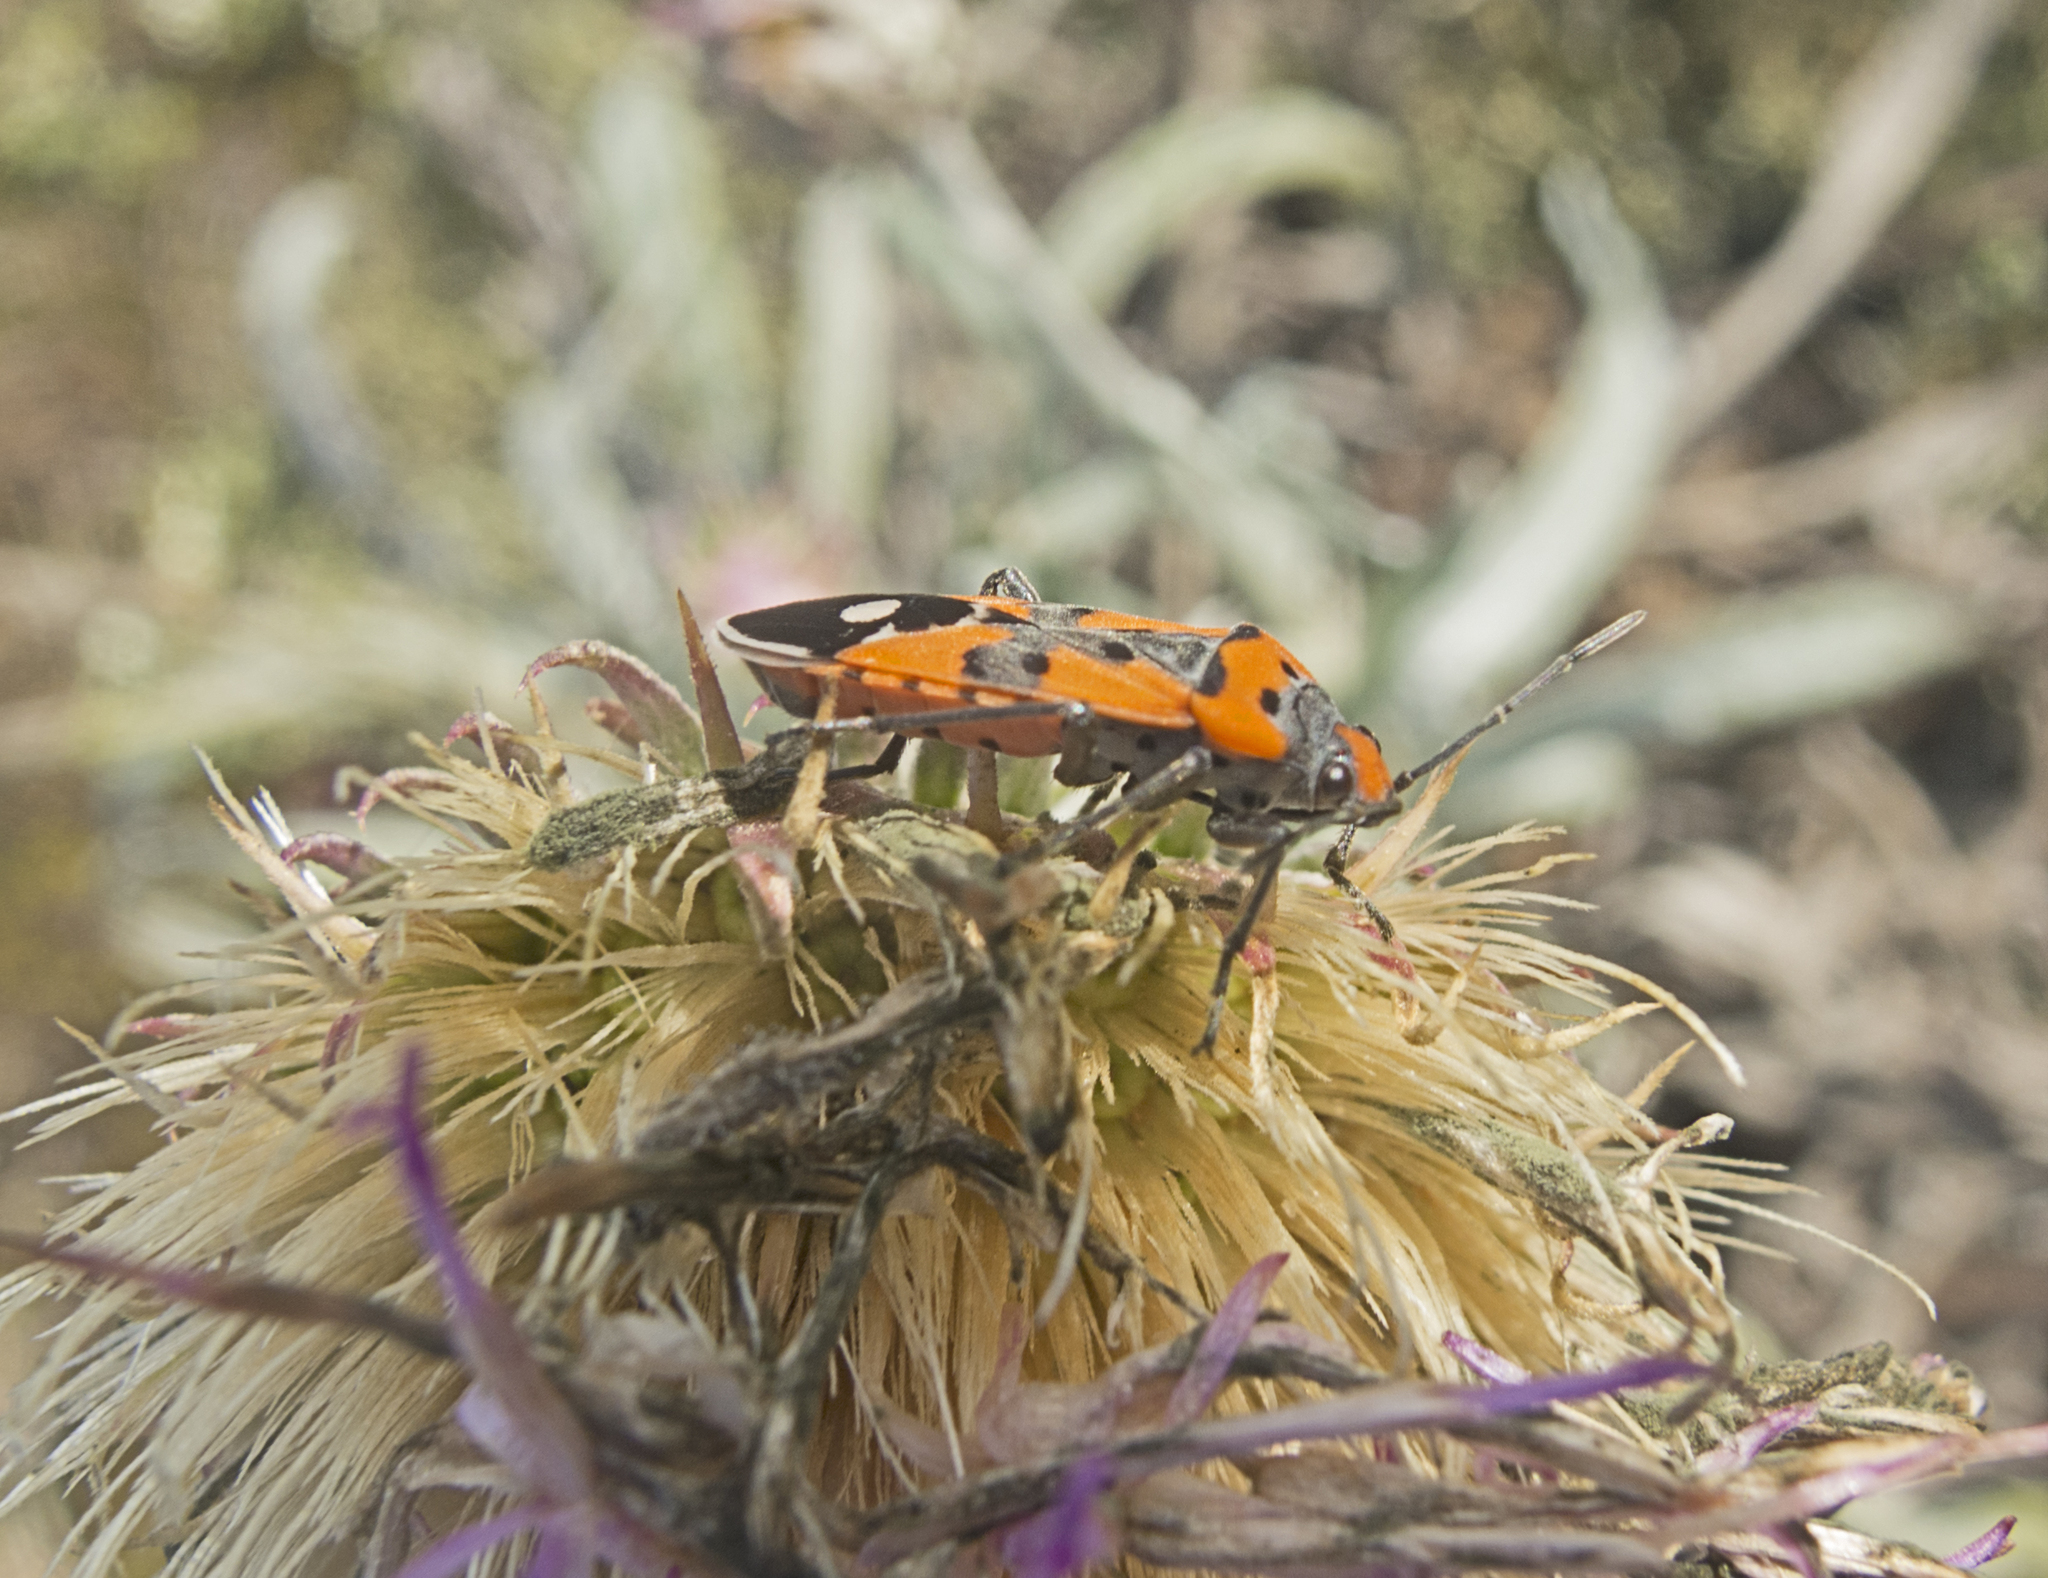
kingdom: Animalia
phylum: Arthropoda
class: Insecta
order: Hemiptera
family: Lygaeidae
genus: Lygaeus
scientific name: Lygaeus equestris
